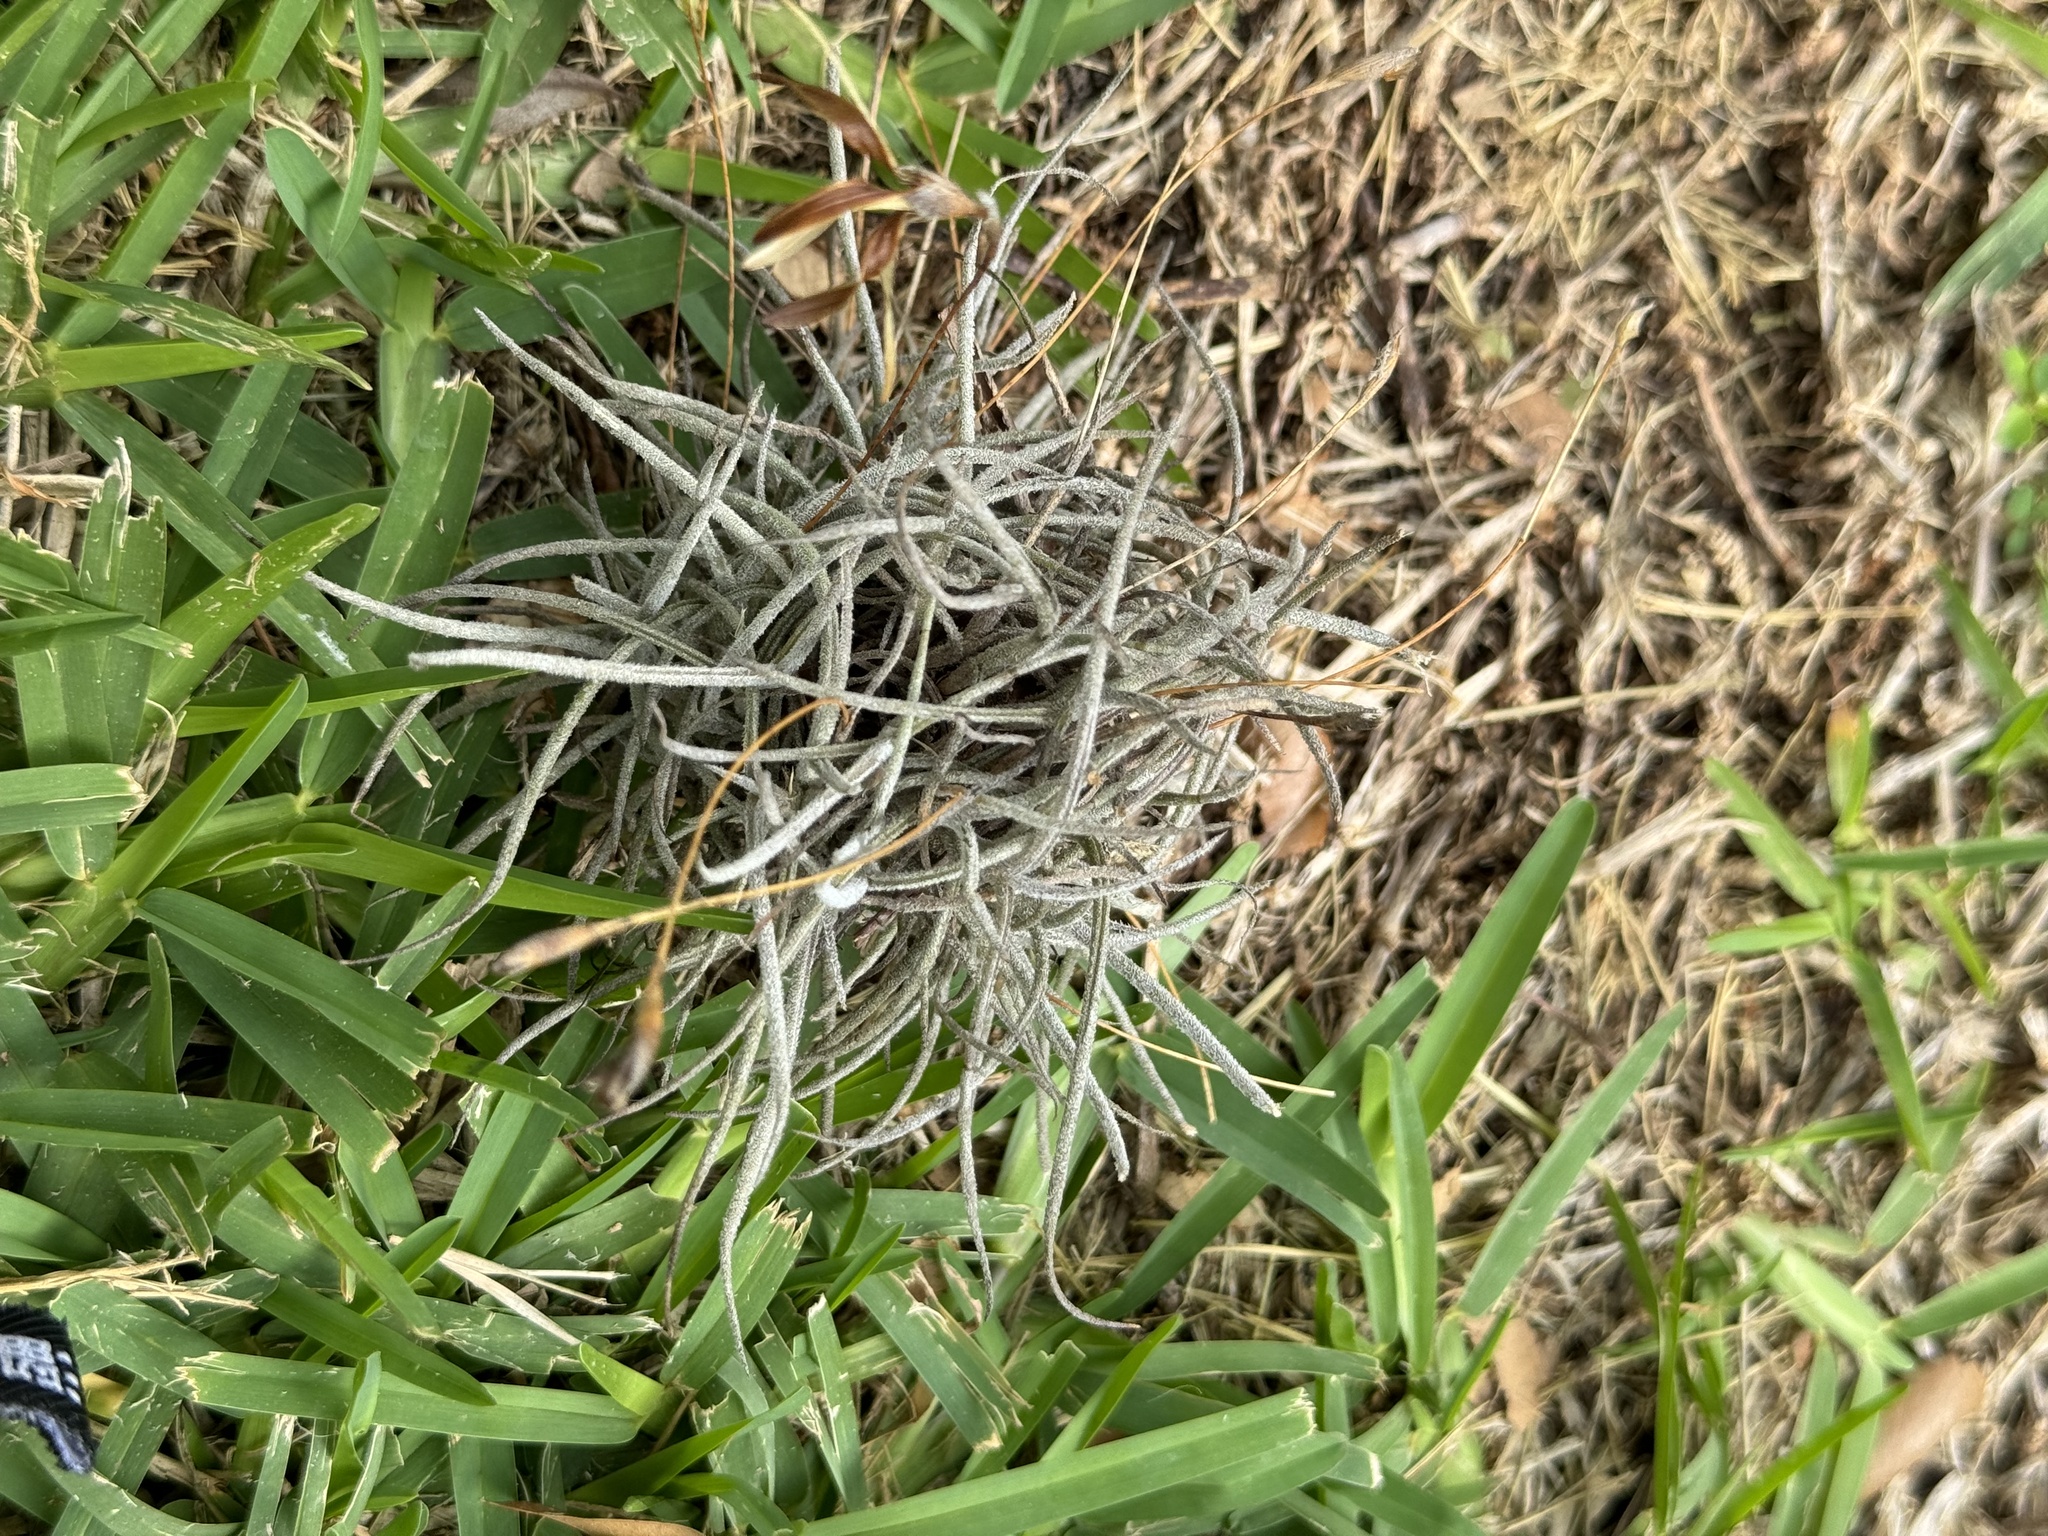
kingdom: Plantae
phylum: Tracheophyta
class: Liliopsida
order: Poales
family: Bromeliaceae
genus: Tillandsia
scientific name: Tillandsia recurvata
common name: Small ballmoss
